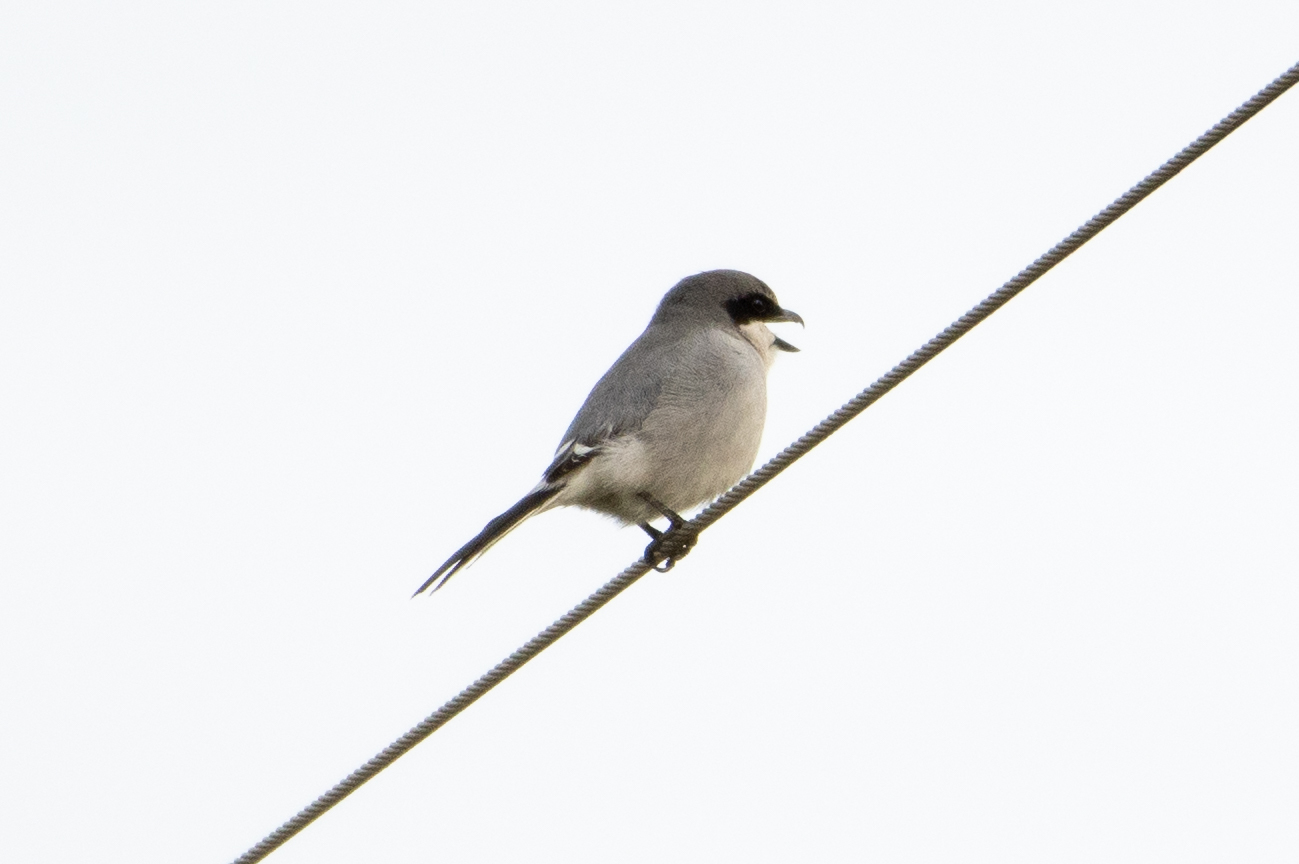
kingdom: Animalia
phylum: Chordata
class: Aves
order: Passeriformes
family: Laniidae
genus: Lanius
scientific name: Lanius ludovicianus
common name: Loggerhead shrike
